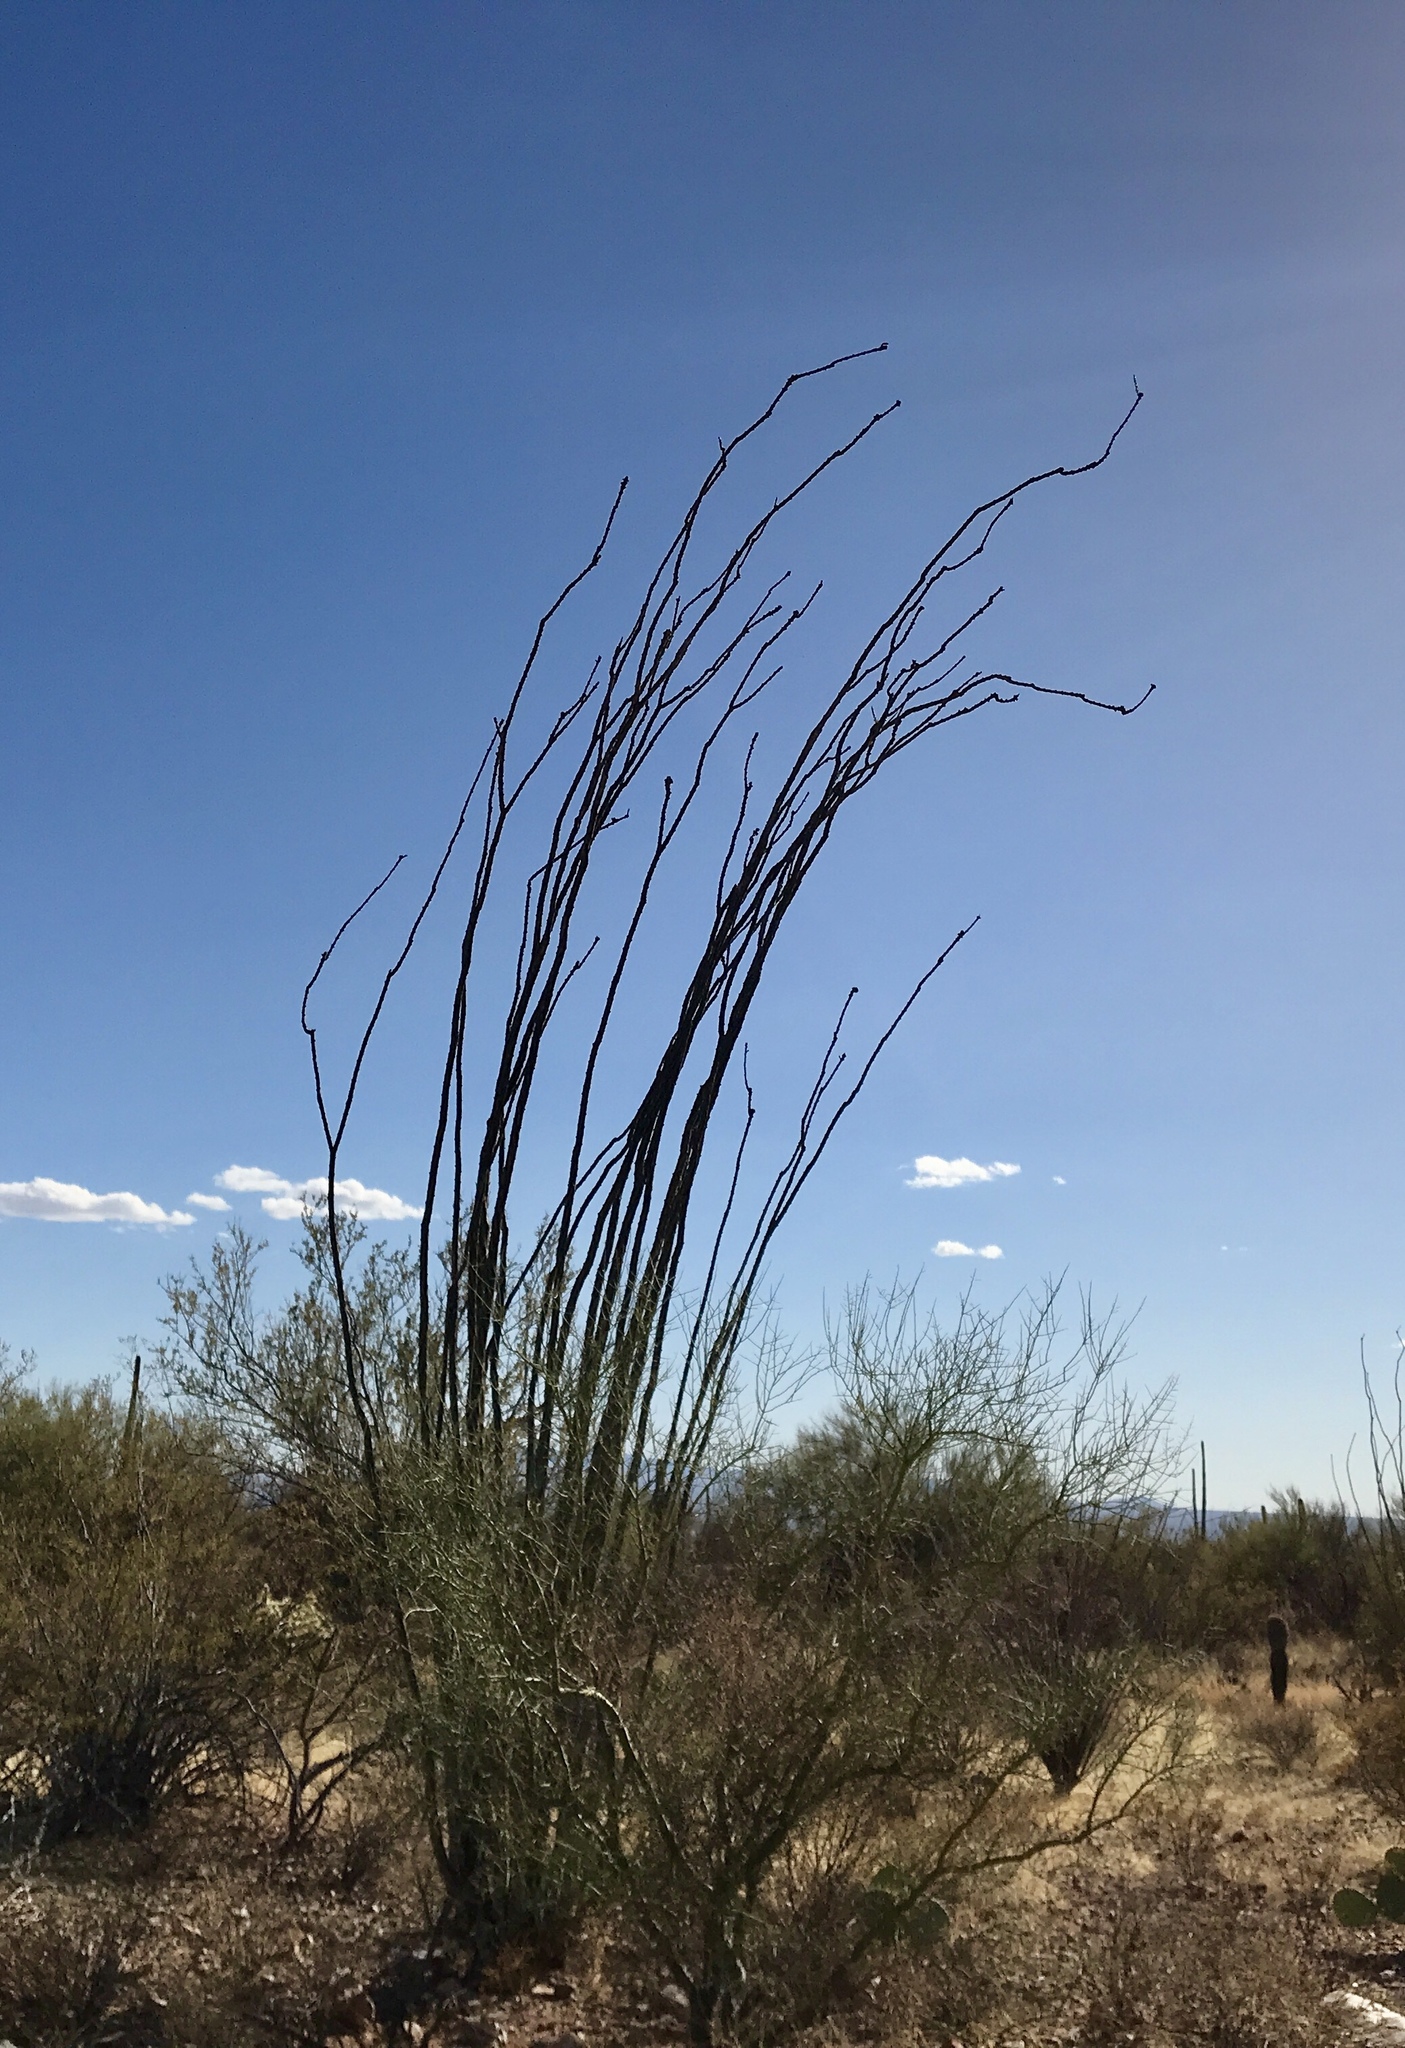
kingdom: Plantae
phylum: Tracheophyta
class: Magnoliopsida
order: Ericales
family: Fouquieriaceae
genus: Fouquieria
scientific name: Fouquieria splendens
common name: Vine-cactus
